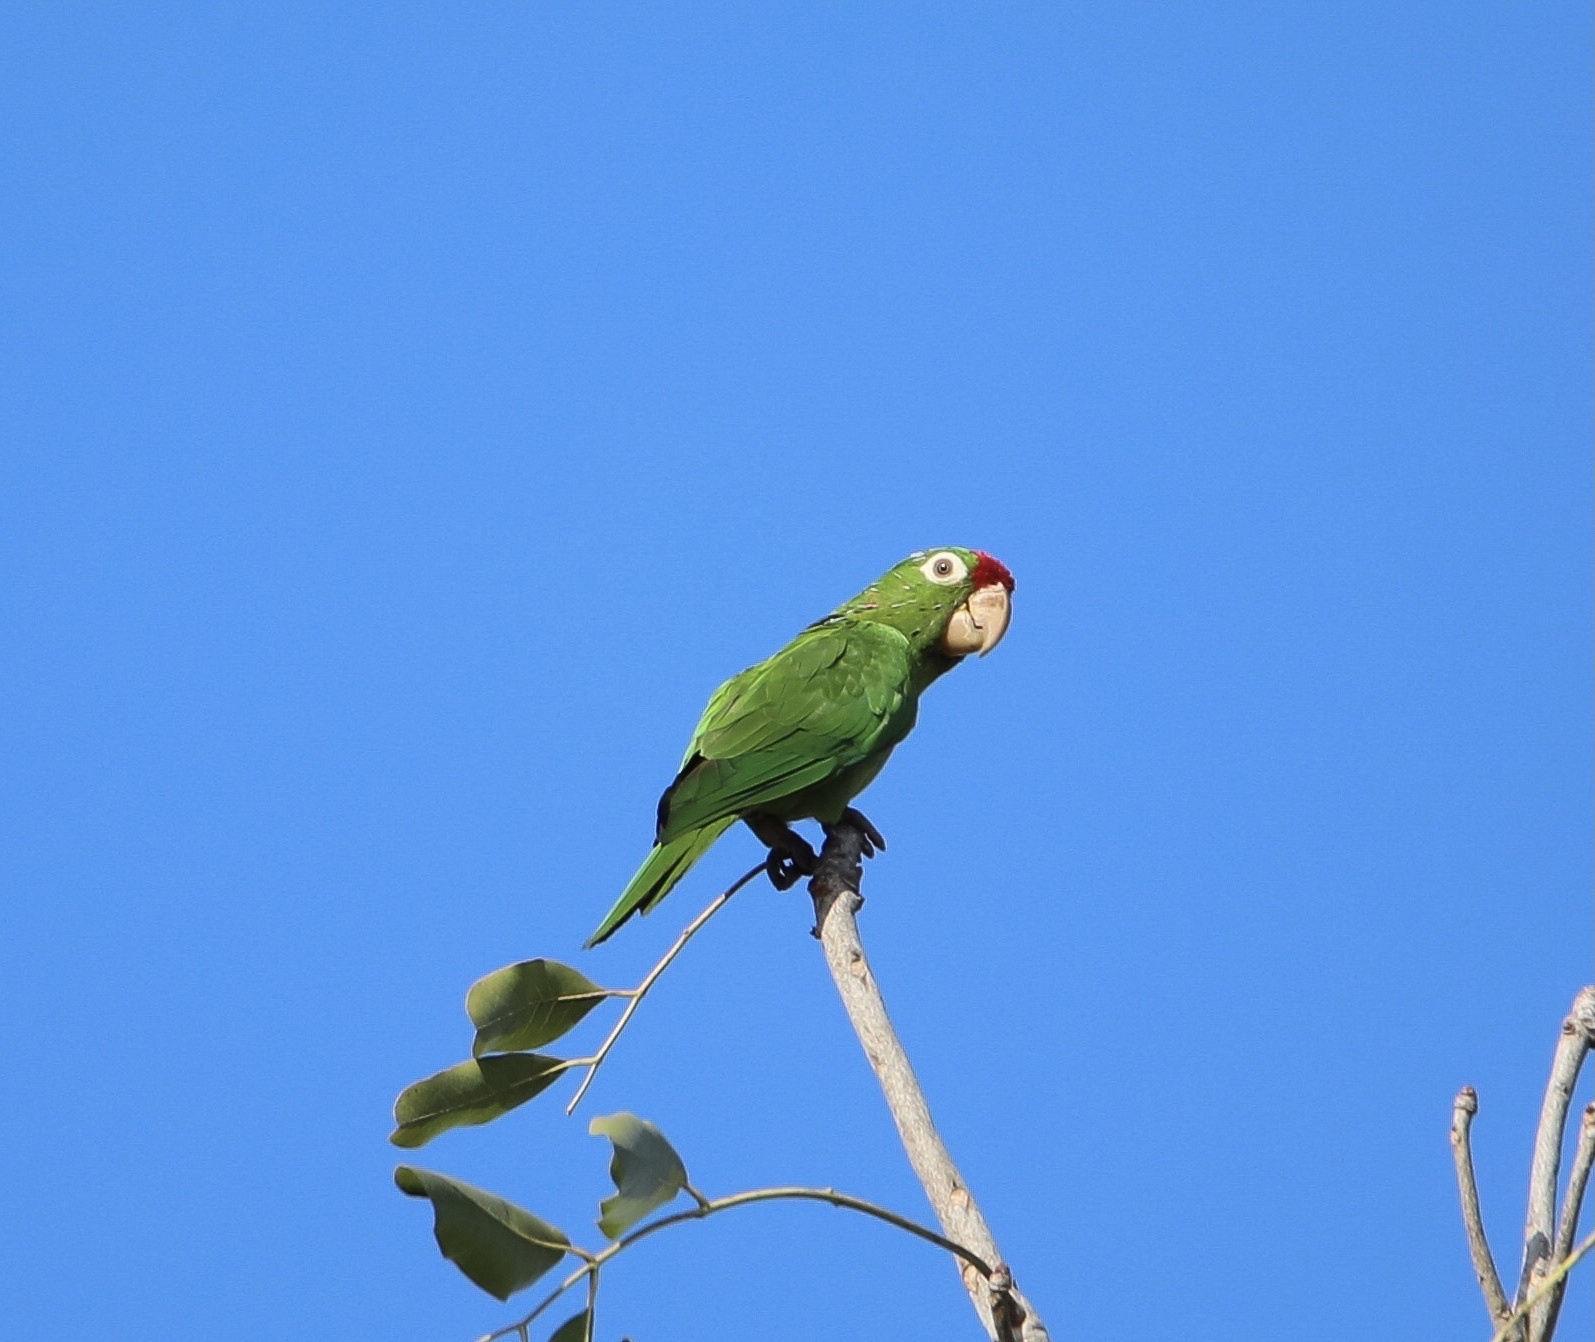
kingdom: Animalia
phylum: Chordata
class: Aves
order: Psittaciformes
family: Psittacidae
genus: Aratinga
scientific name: Aratinga finschi
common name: Crimson-fronted parakeet
